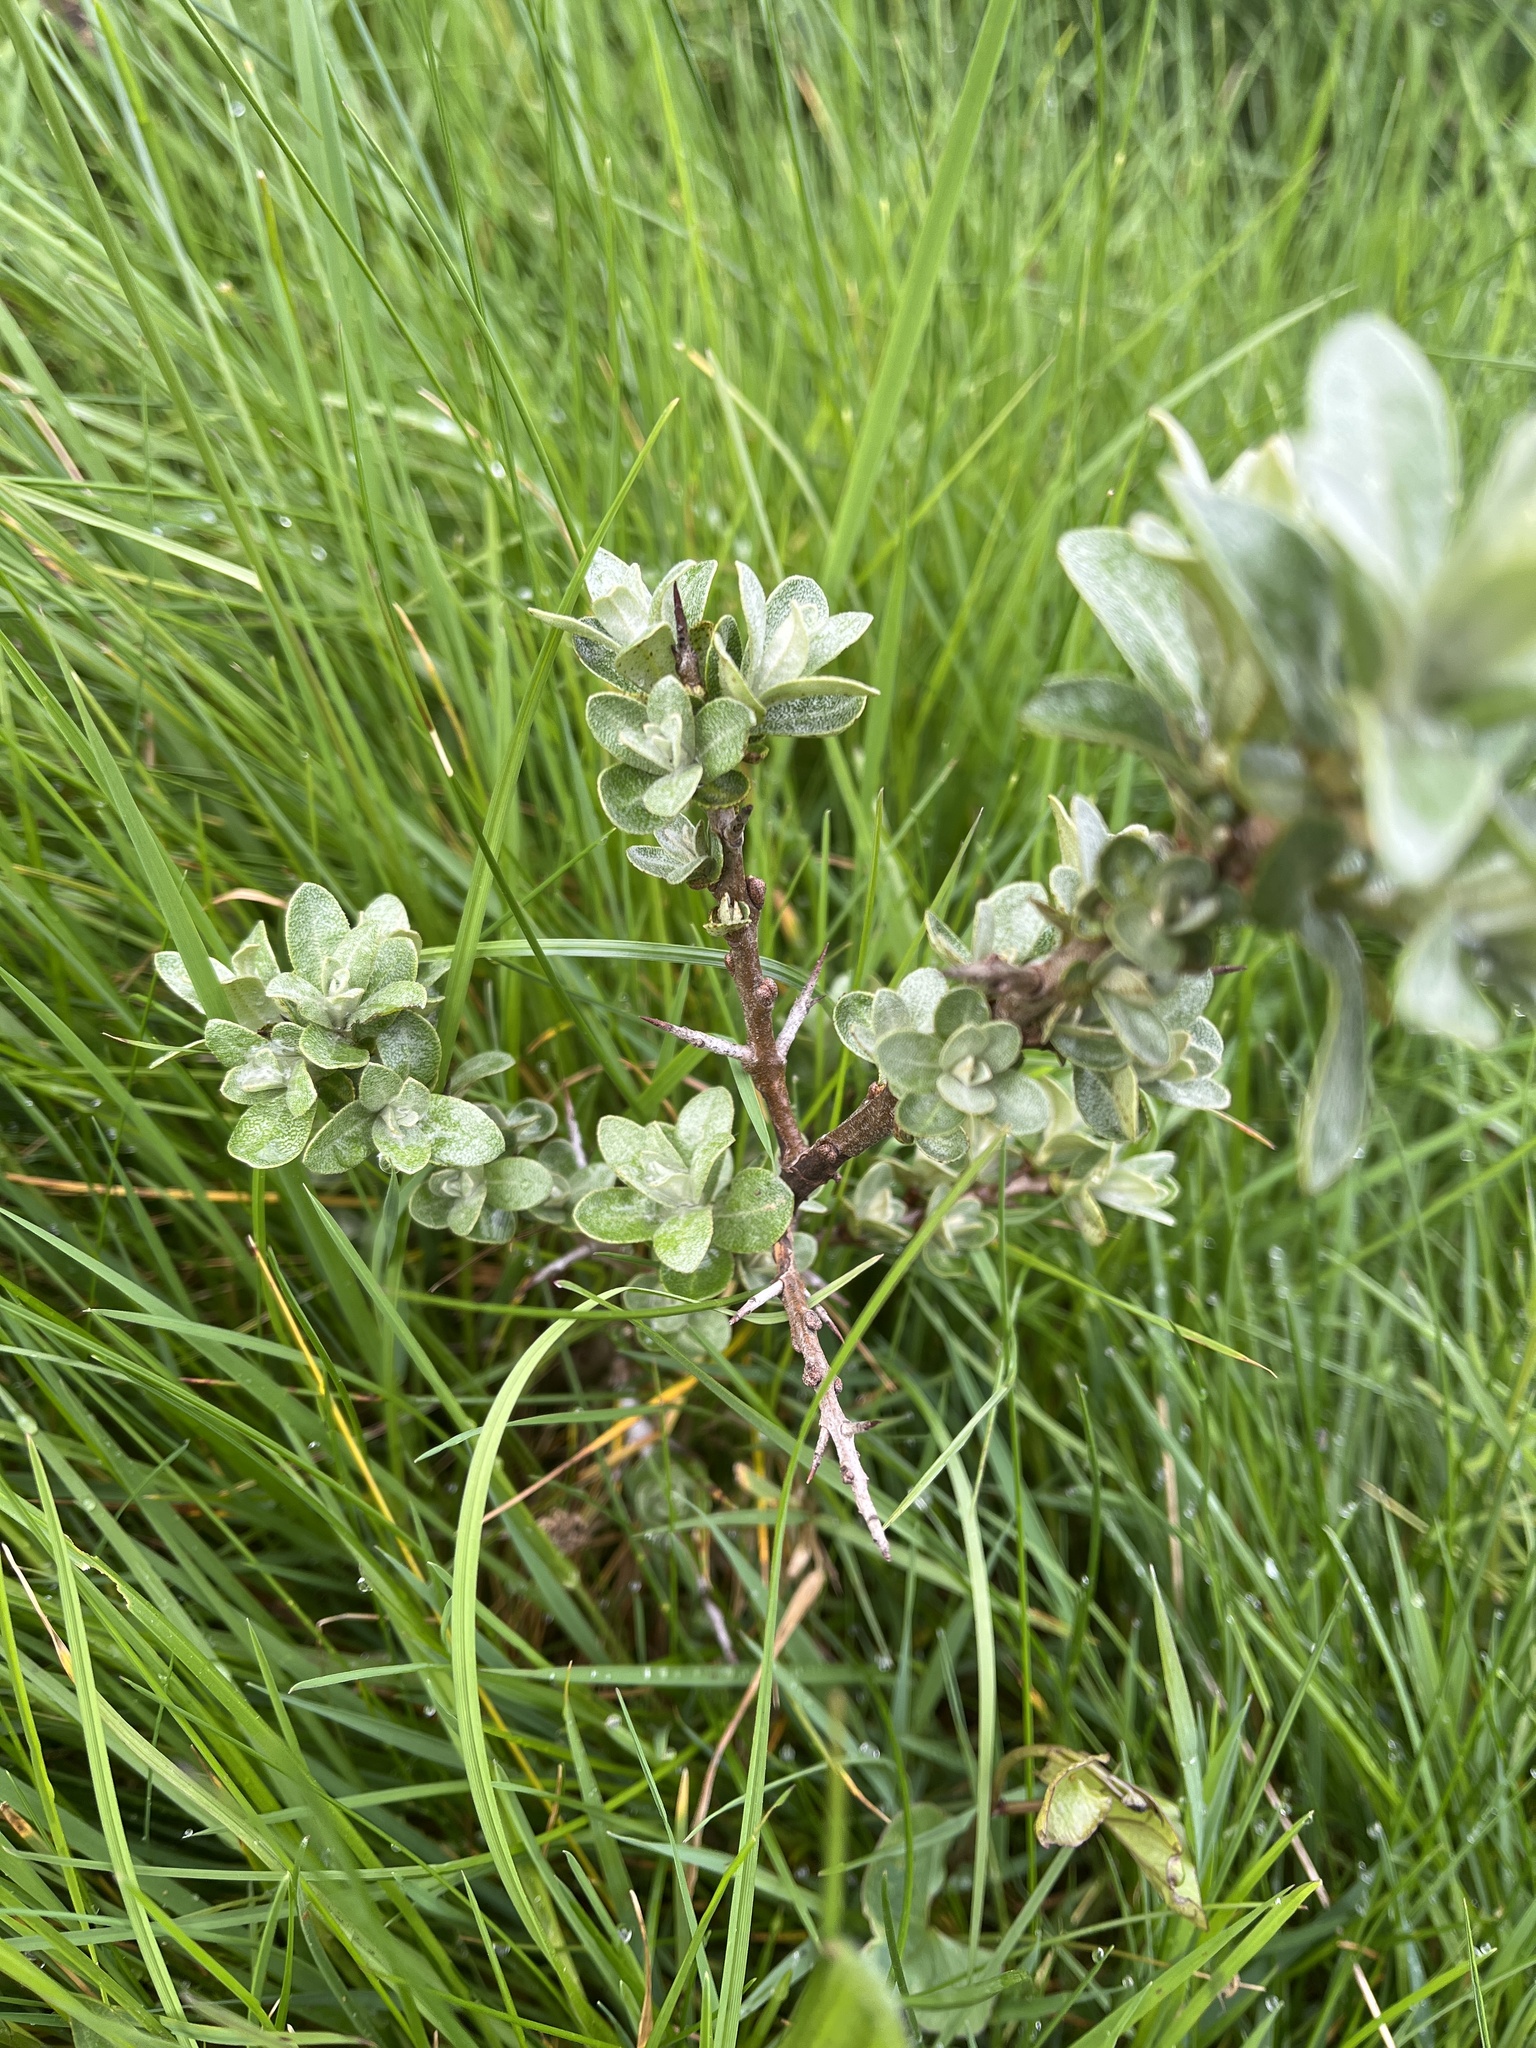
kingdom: Plantae
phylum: Tracheophyta
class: Magnoliopsida
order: Rosales
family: Elaeagnaceae
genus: Hippophae
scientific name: Hippophae rhamnoides
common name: Sea-buckthorn
